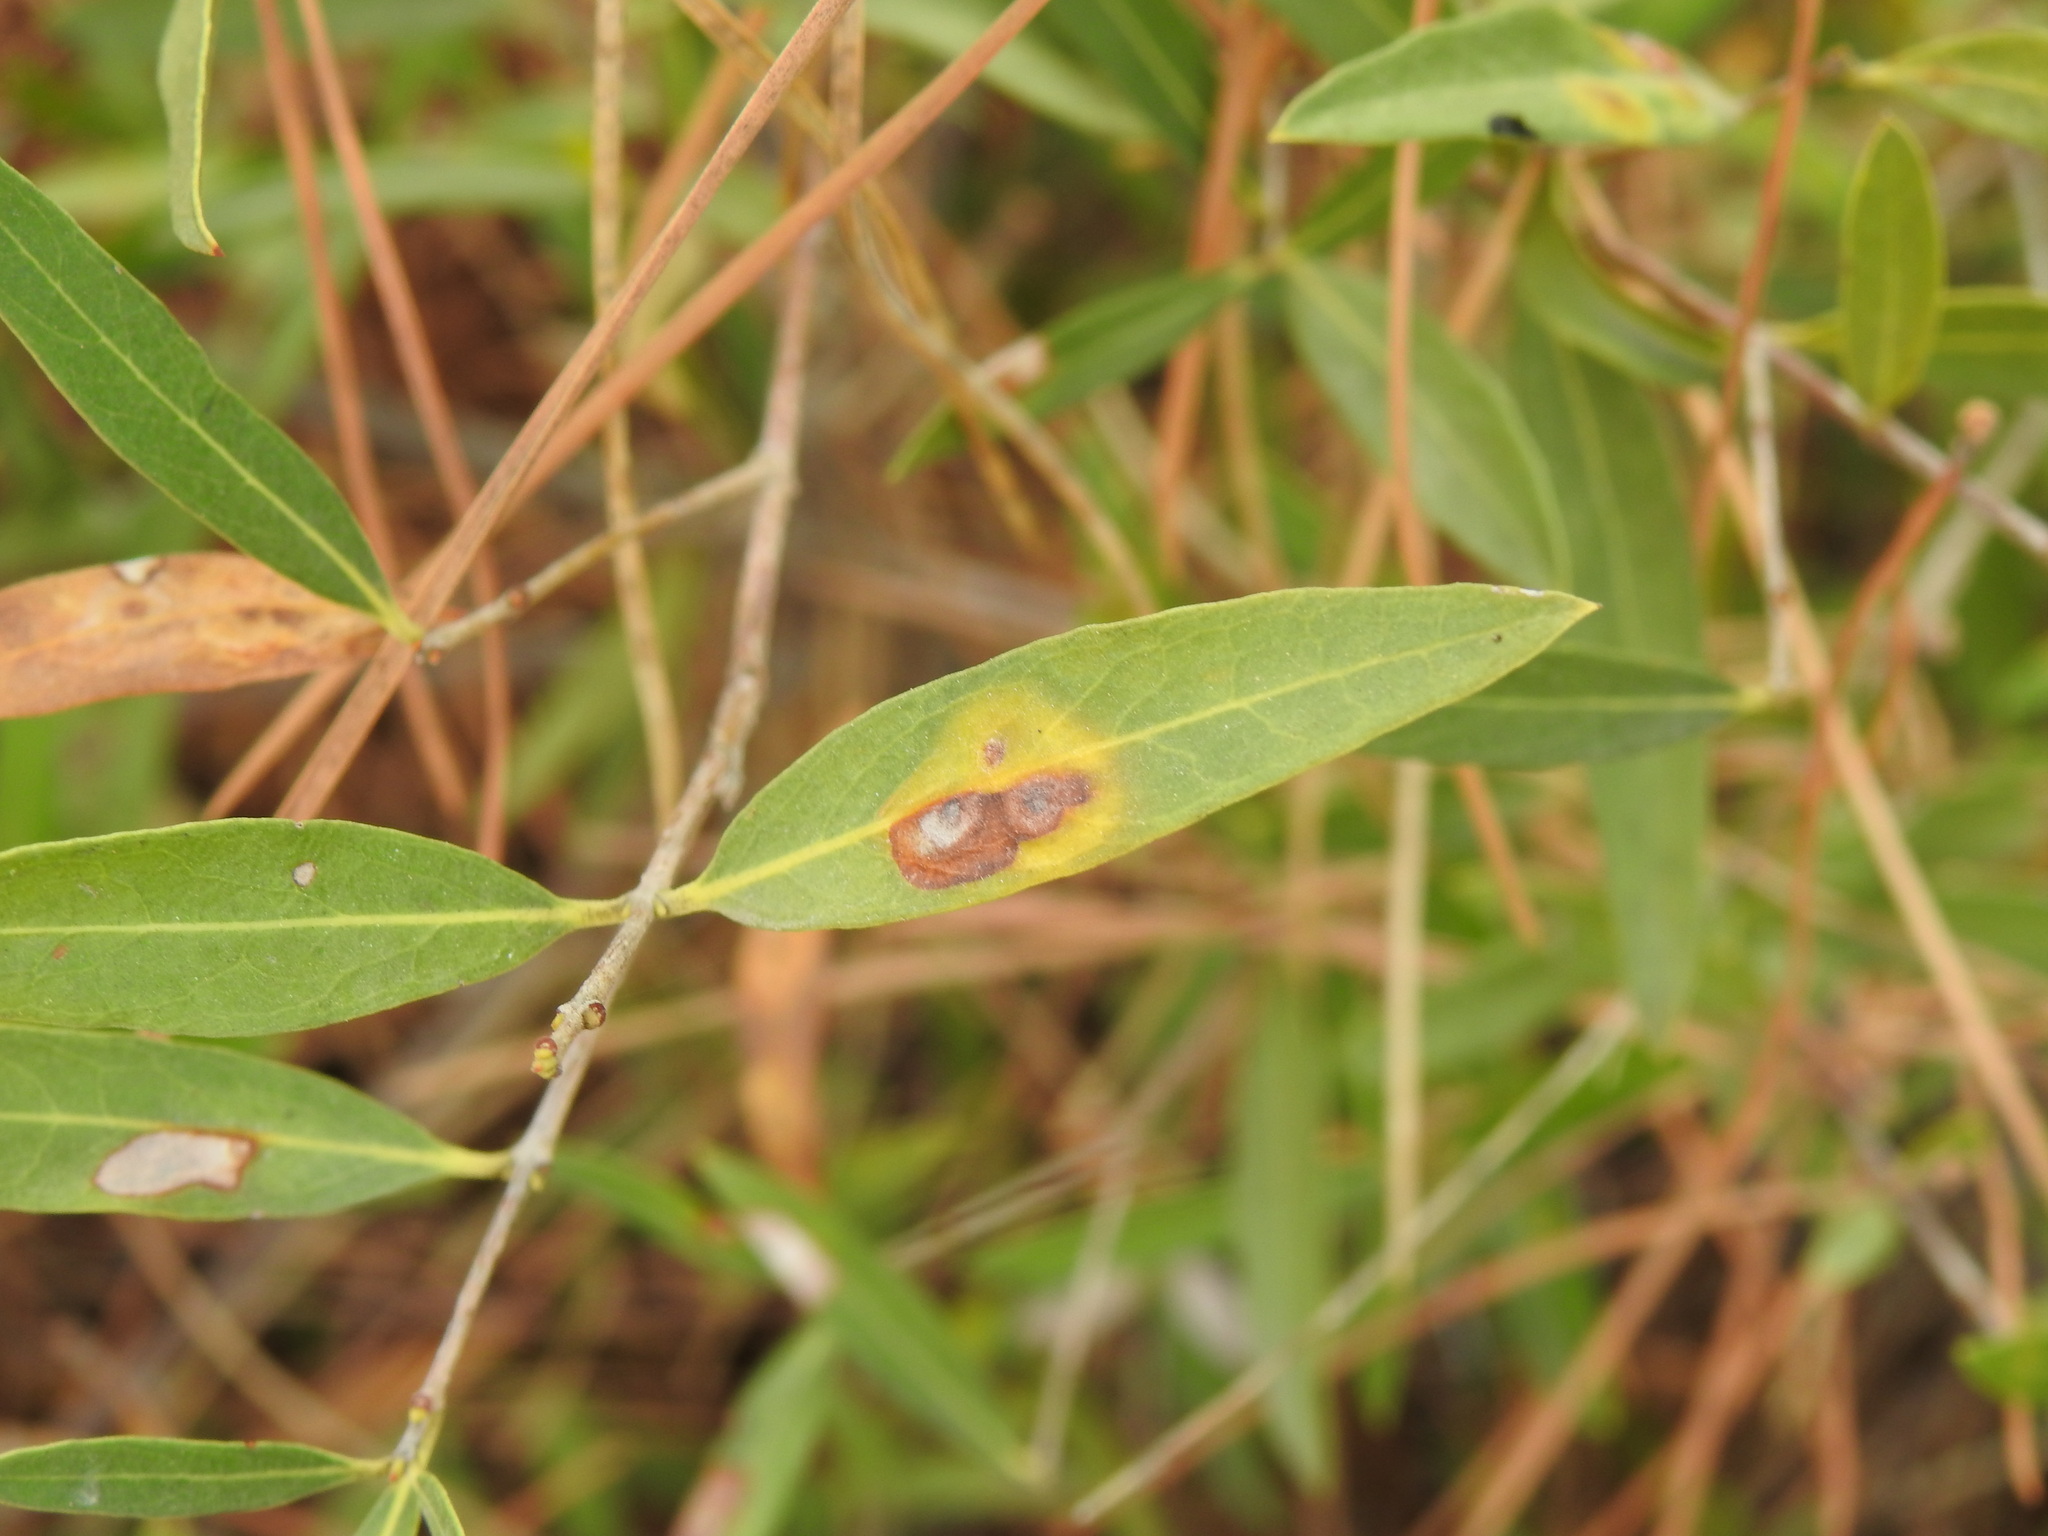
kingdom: Animalia
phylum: Arthropoda
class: Insecta
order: Diptera
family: Cecidomyiidae
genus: Braueriella
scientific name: Braueriella phillyreae
